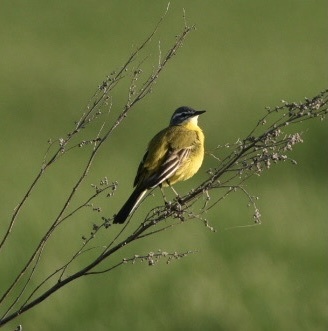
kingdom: Animalia
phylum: Chordata
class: Aves
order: Passeriformes
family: Motacillidae
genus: Motacilla
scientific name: Motacilla flava
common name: Western yellow wagtail
